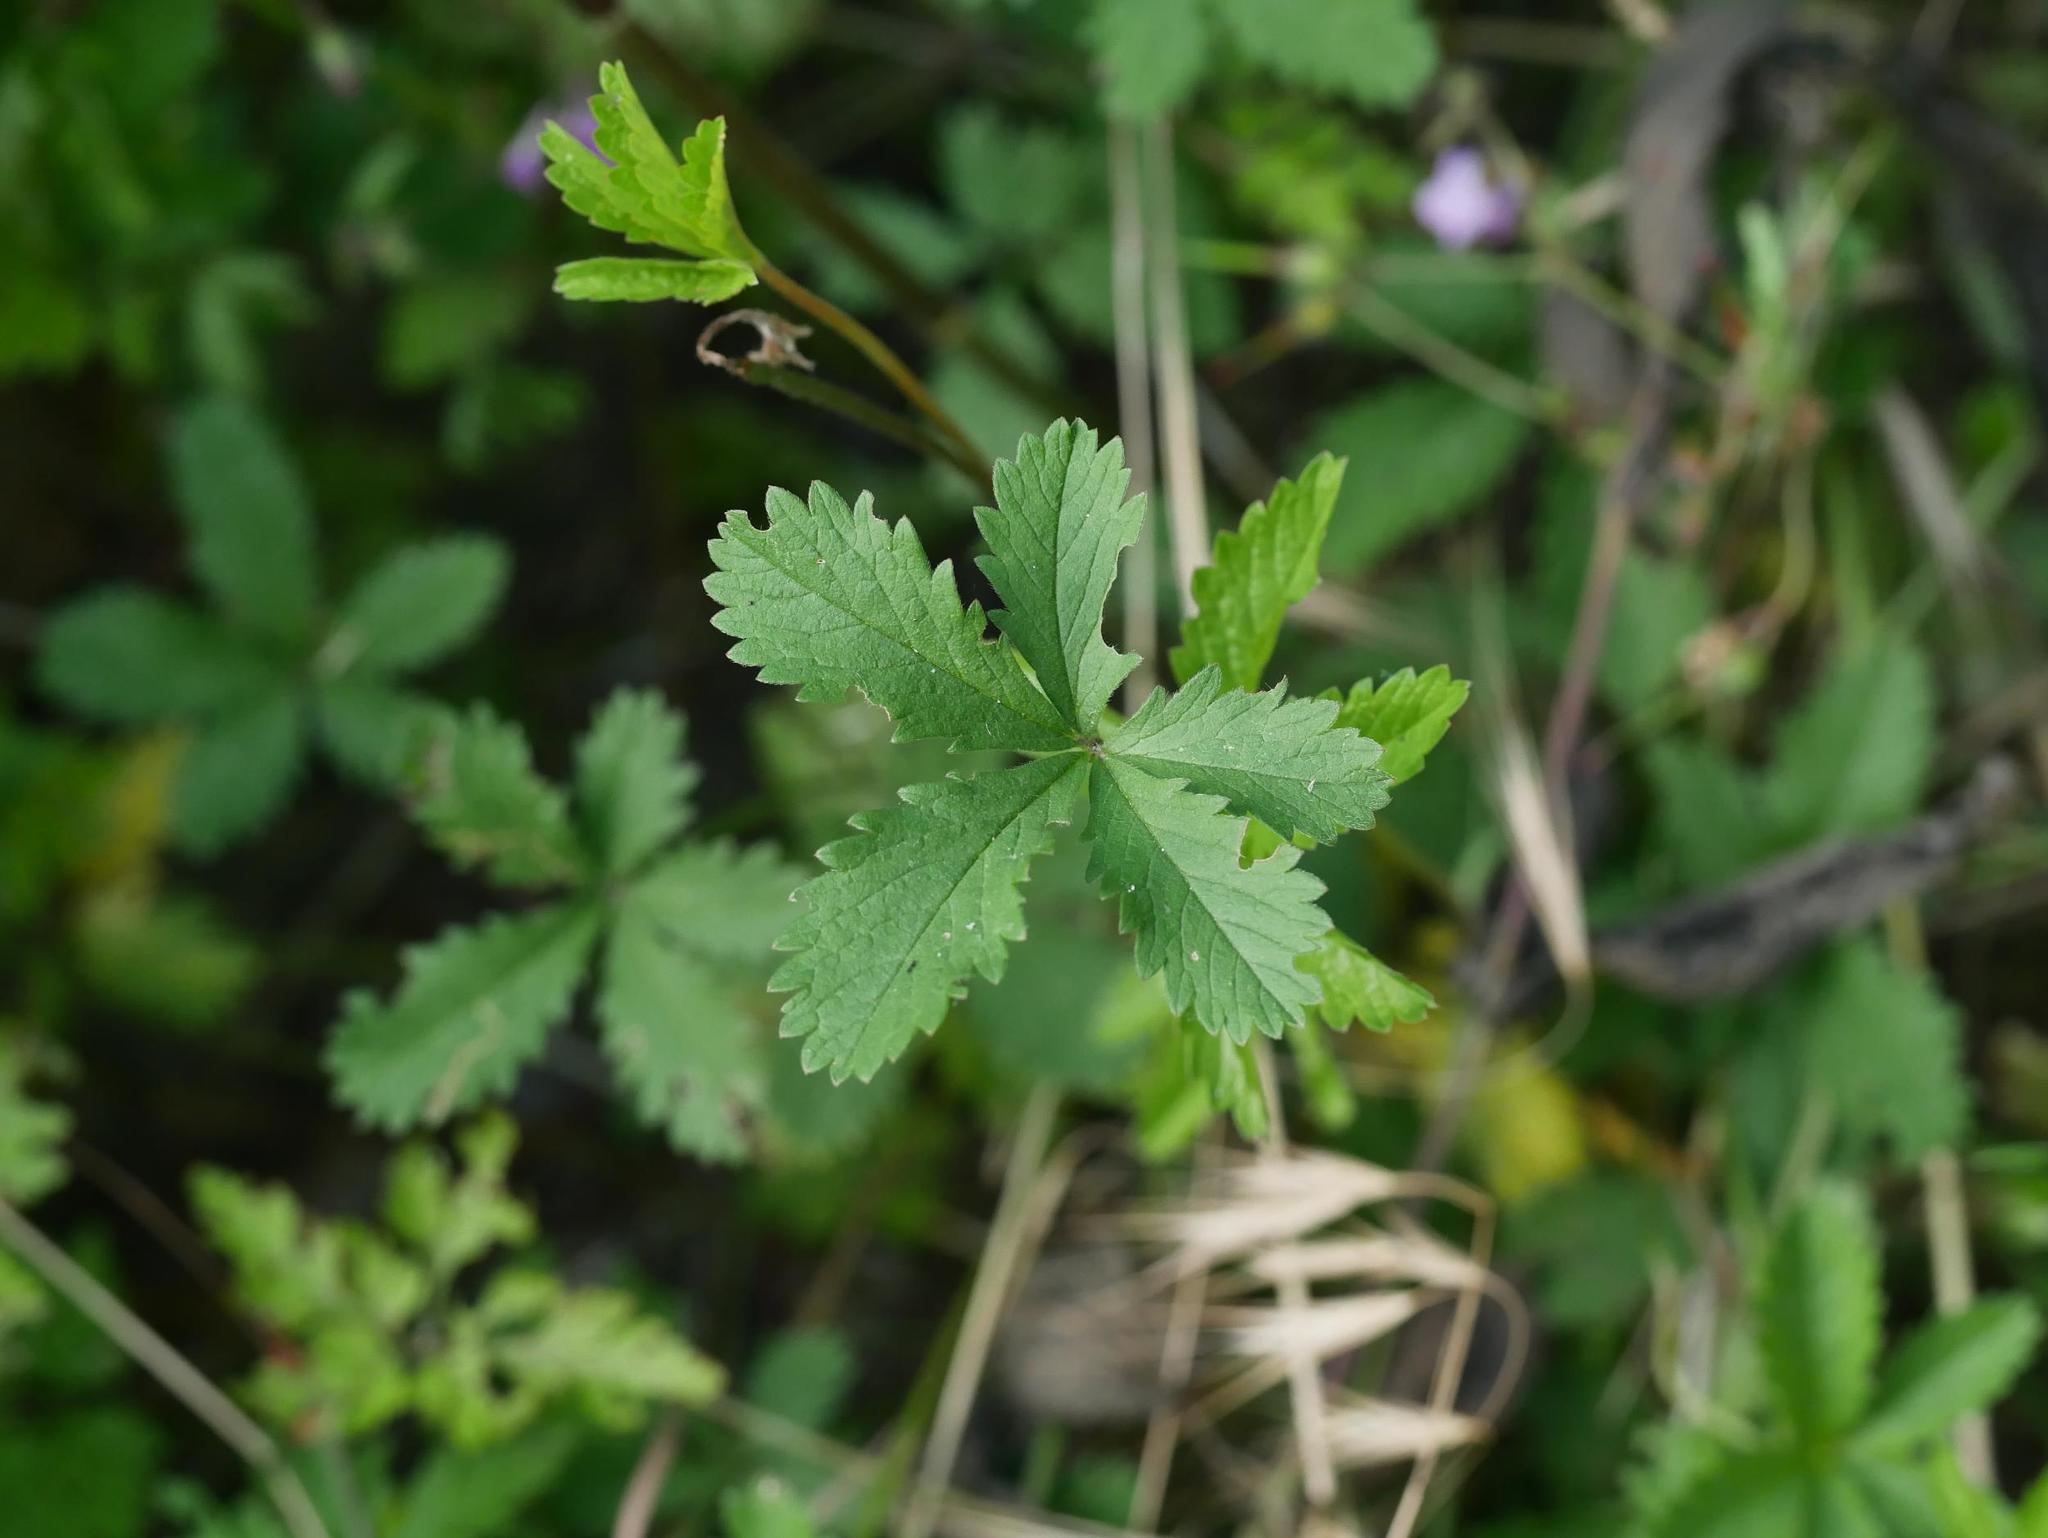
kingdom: Plantae
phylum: Tracheophyta
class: Magnoliopsida
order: Rosales
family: Rosaceae
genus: Potentilla
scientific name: Potentilla reptans
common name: Creeping cinquefoil
